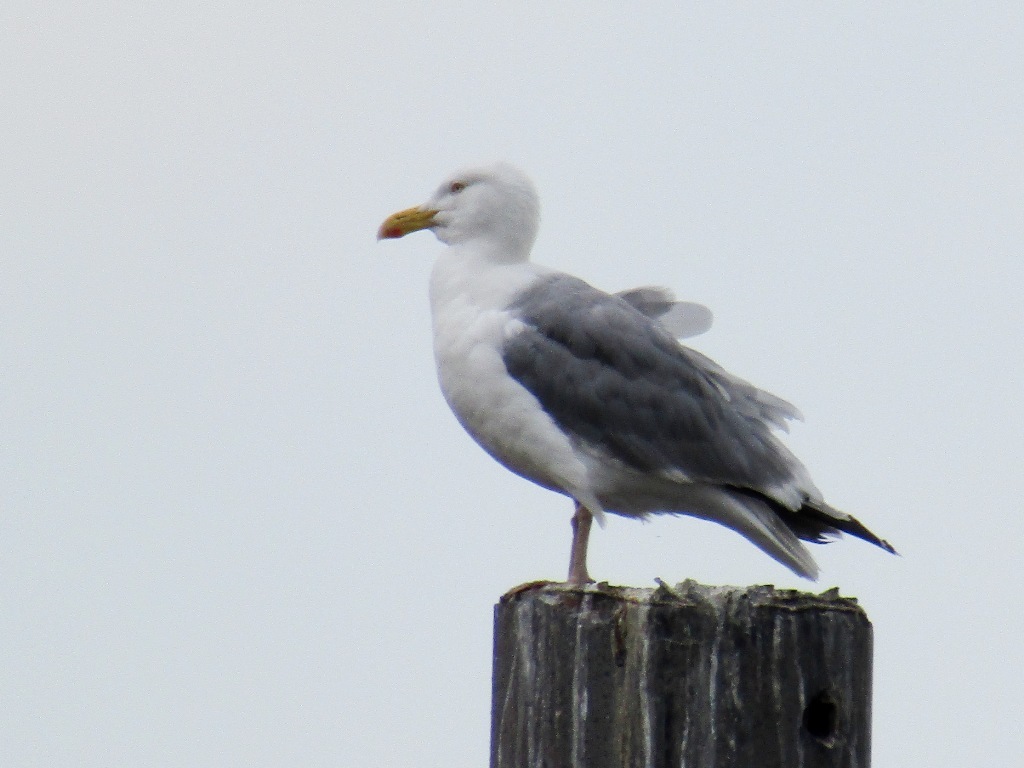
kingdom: Animalia
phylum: Chordata
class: Aves
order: Charadriiformes
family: Laridae
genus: Larus
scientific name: Larus argentatus
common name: Herring gull
